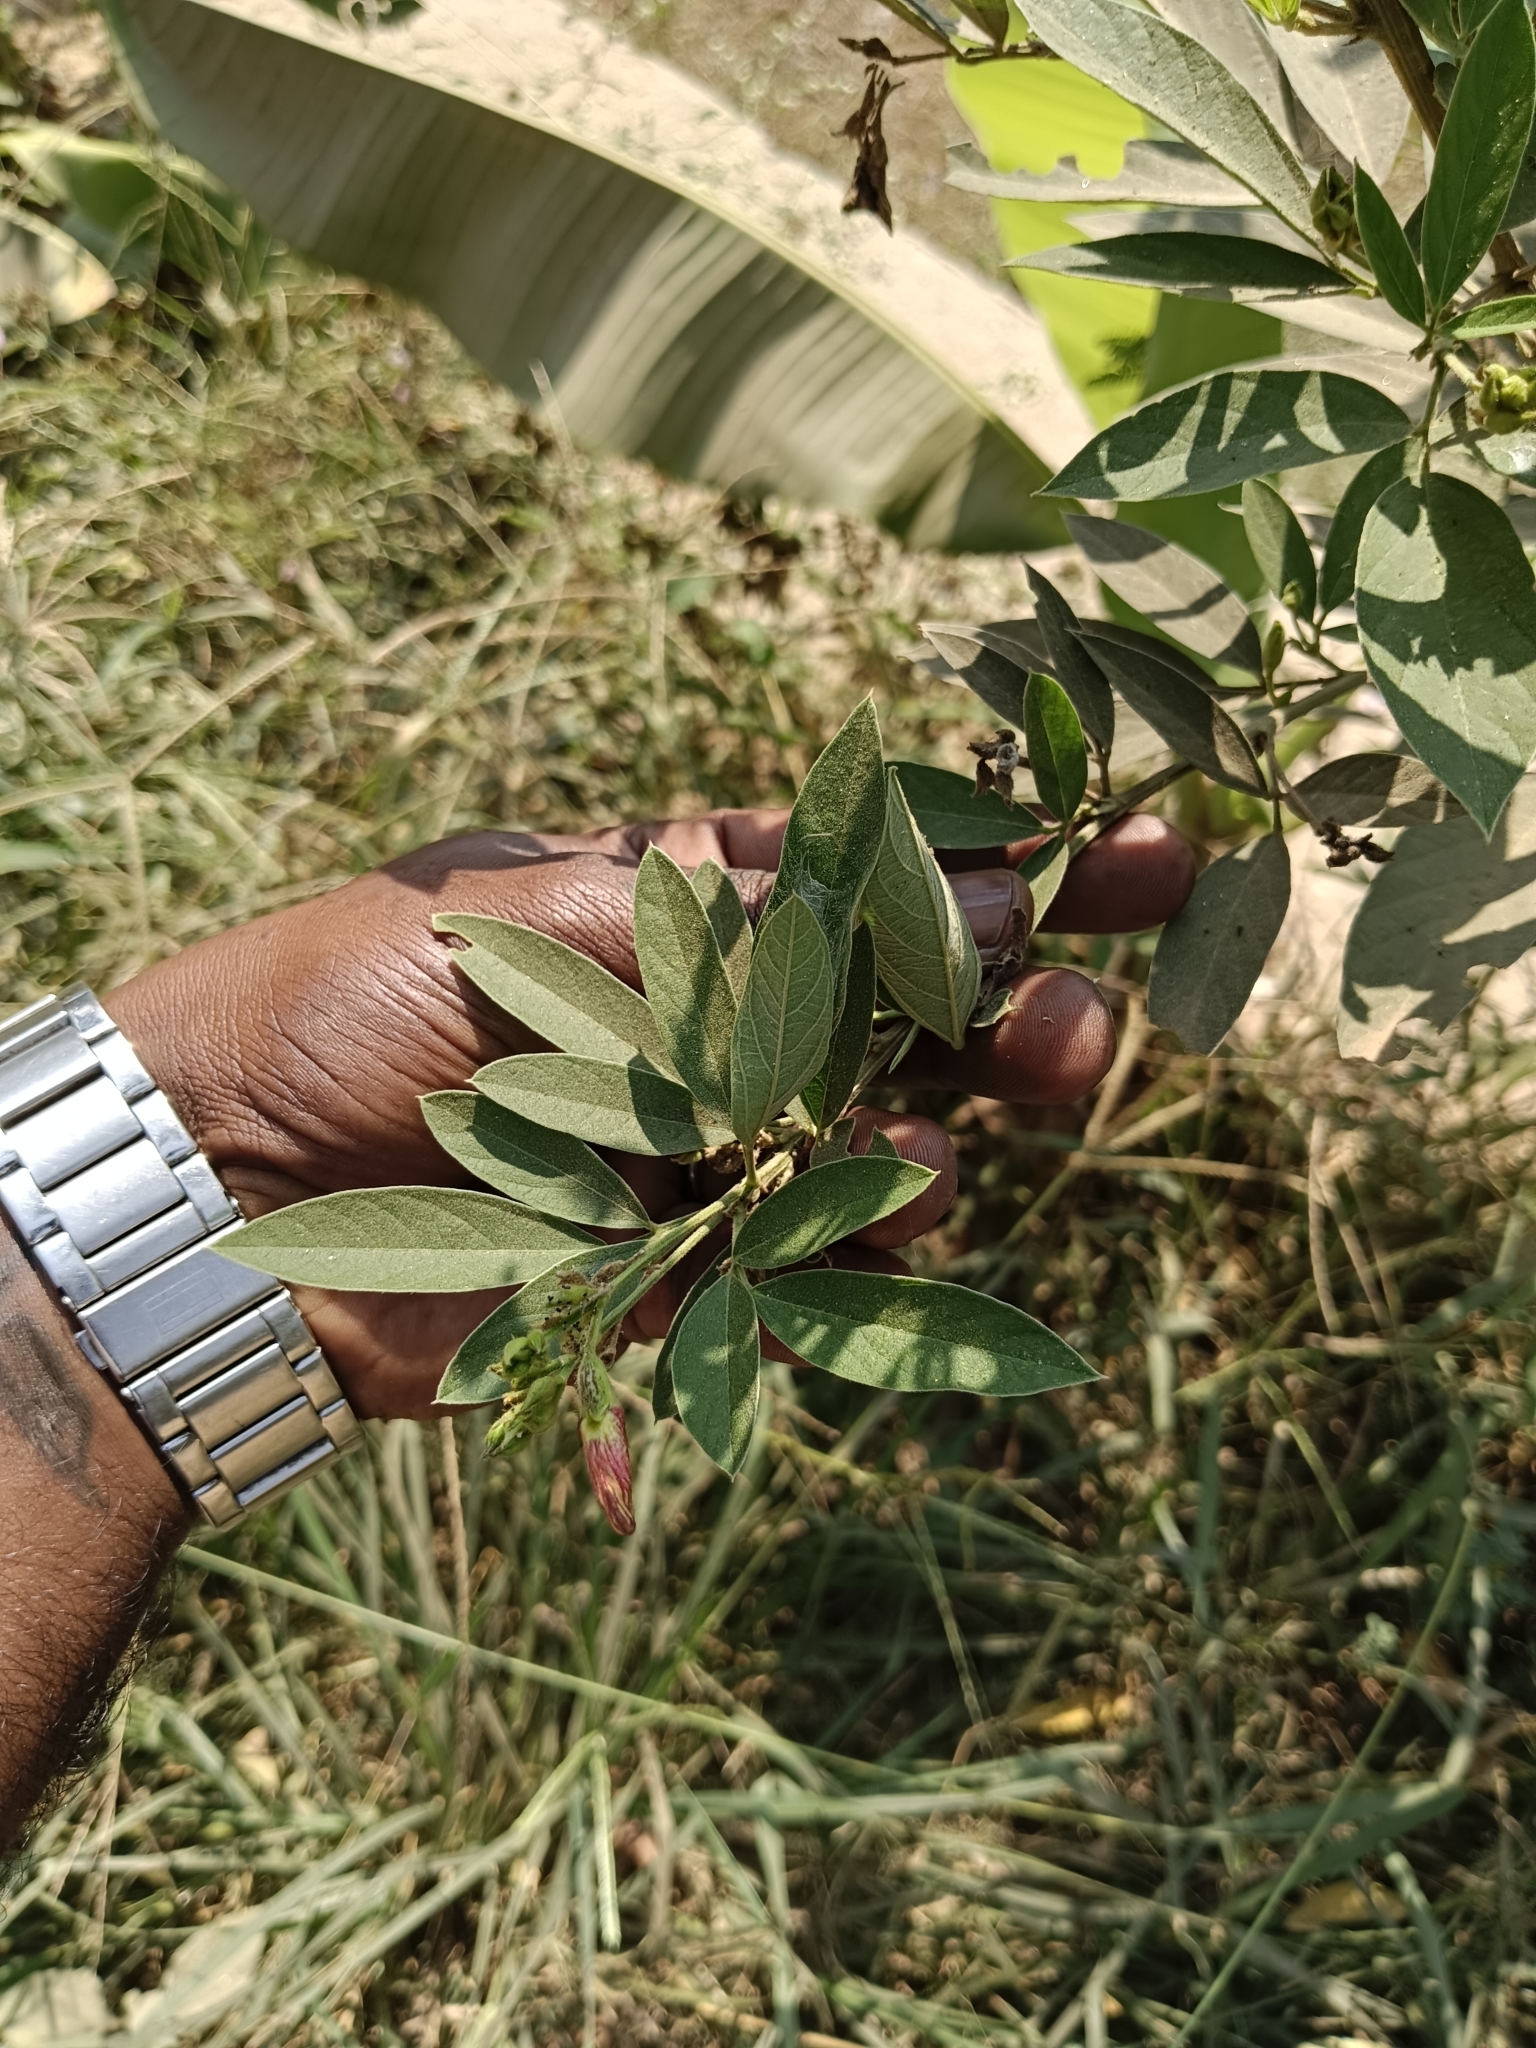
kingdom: Plantae
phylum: Tracheophyta
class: Magnoliopsida
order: Fabales
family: Fabaceae
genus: Cajanus
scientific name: Cajanus cajan
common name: Pigeonpea
